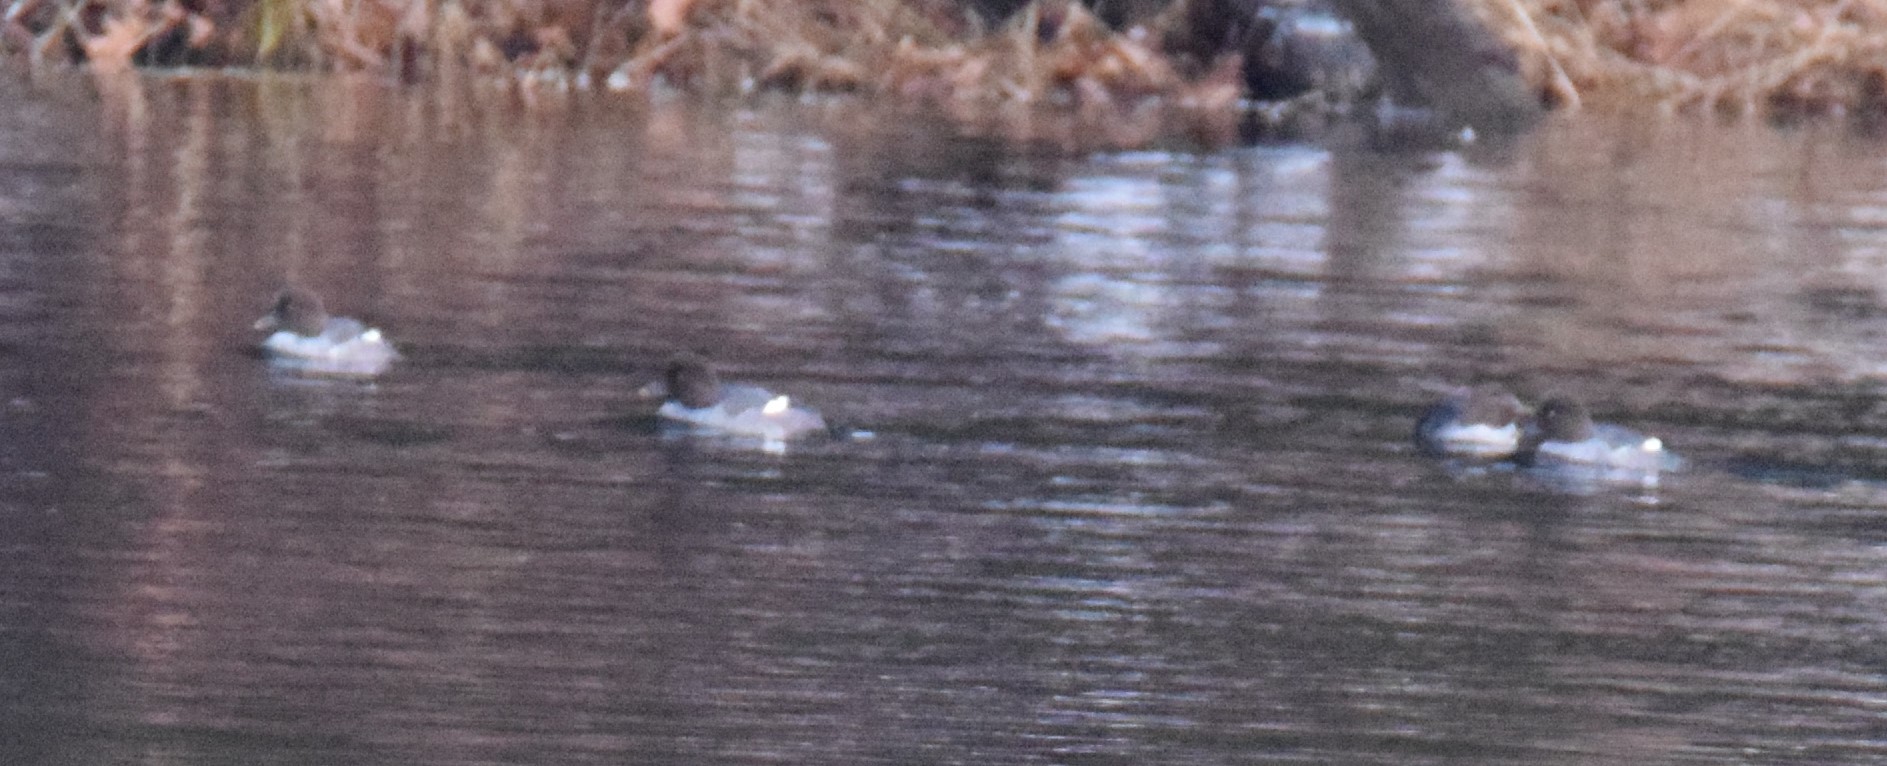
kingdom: Animalia
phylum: Chordata
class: Aves
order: Anseriformes
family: Anatidae
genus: Bucephala
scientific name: Bucephala clangula
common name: Common goldeneye
